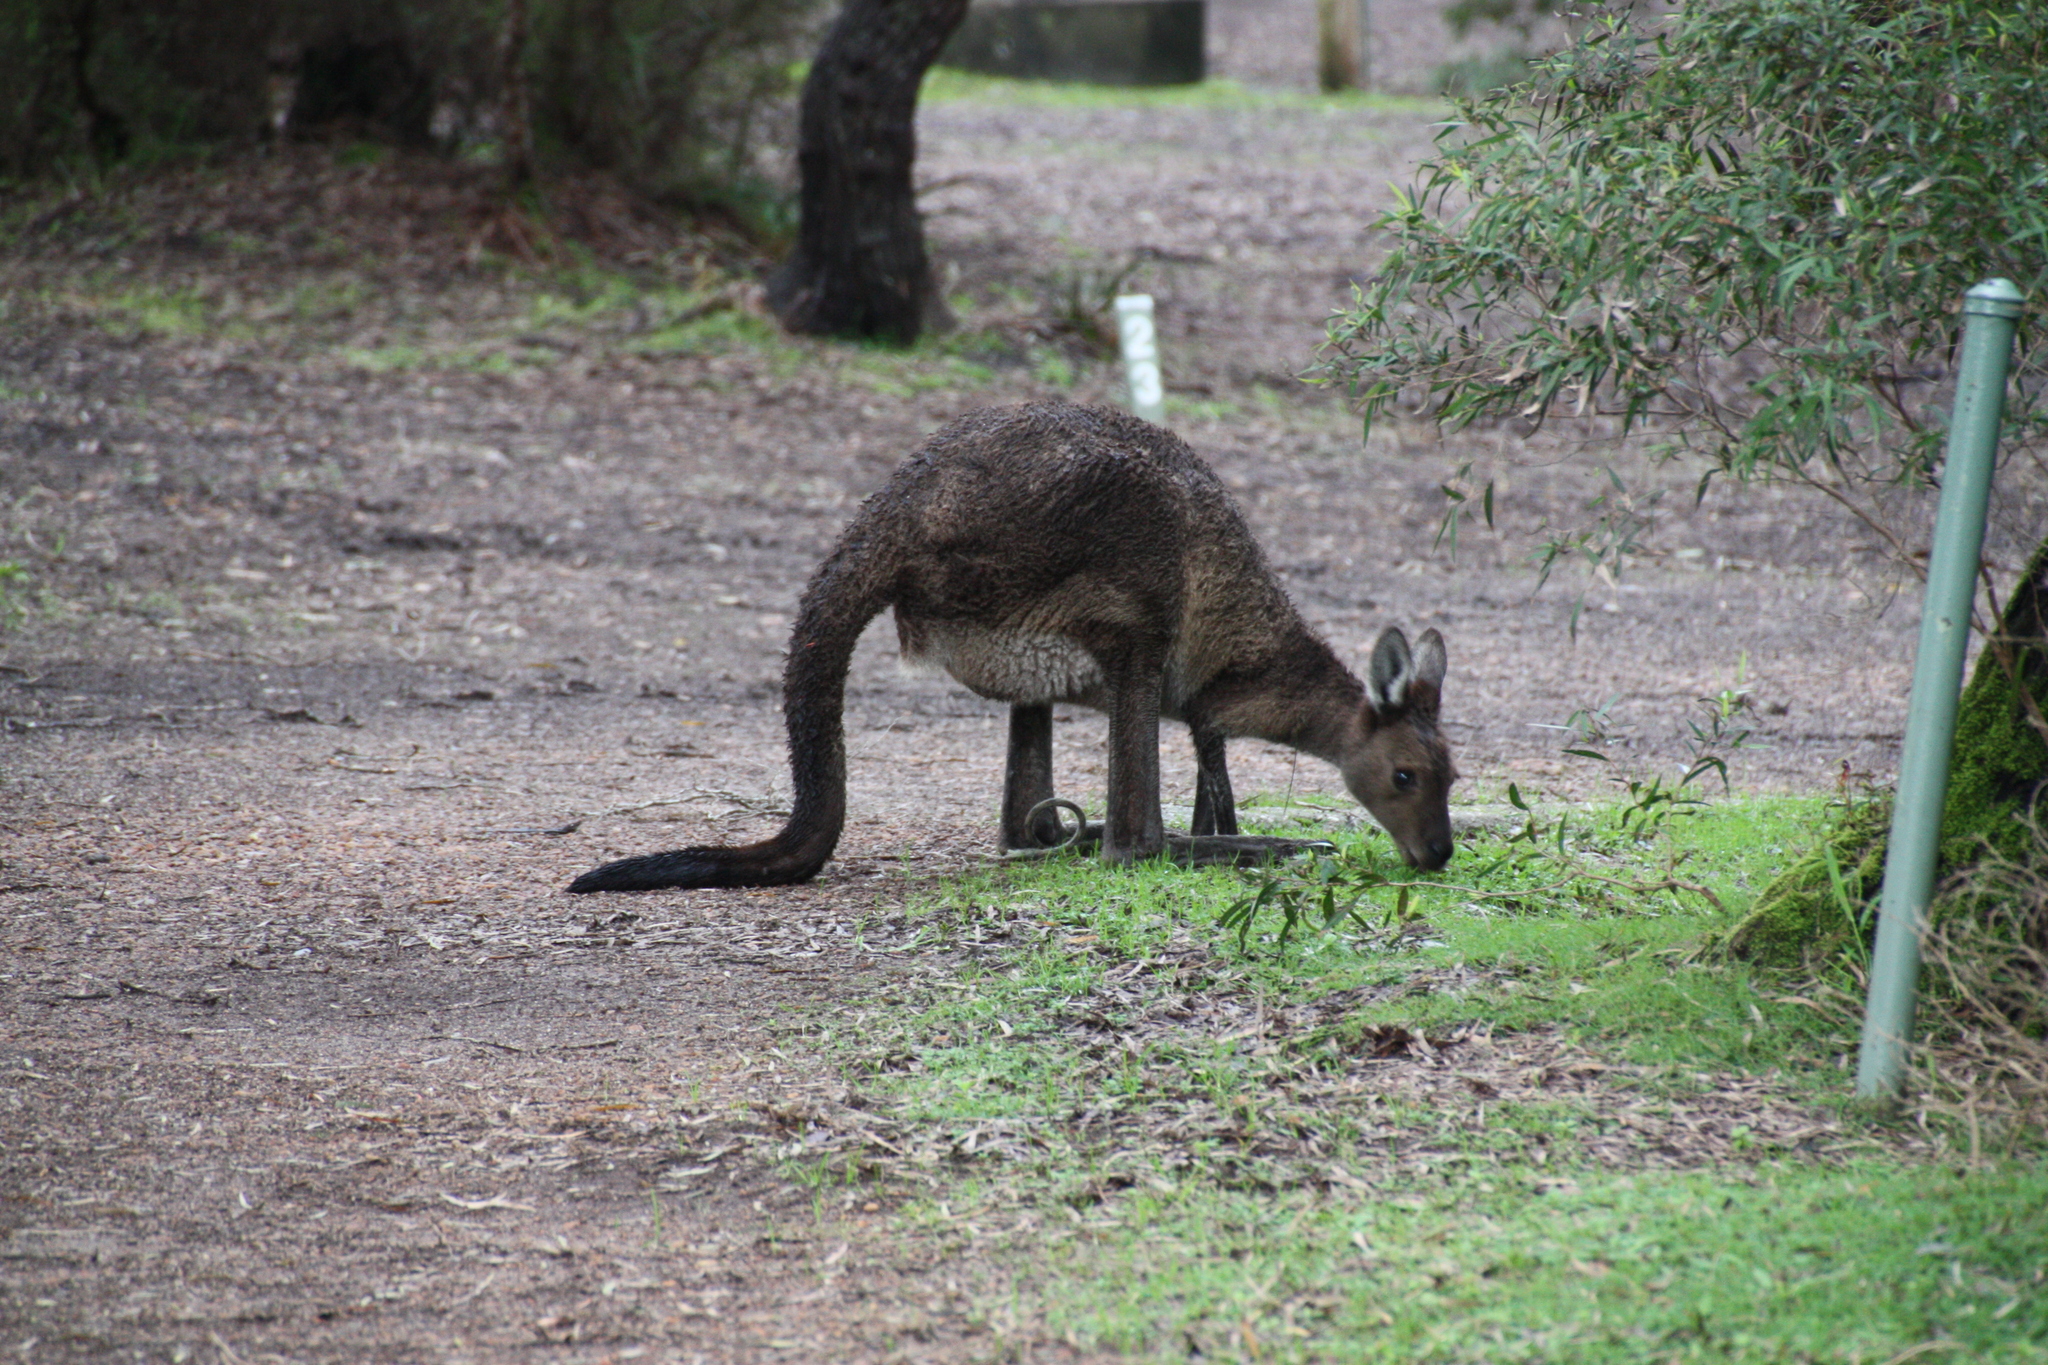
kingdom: Animalia
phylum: Chordata
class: Mammalia
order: Diprotodontia
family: Macropodidae
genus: Macropus
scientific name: Macropus fuliginosus
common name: Western grey kangaroo
